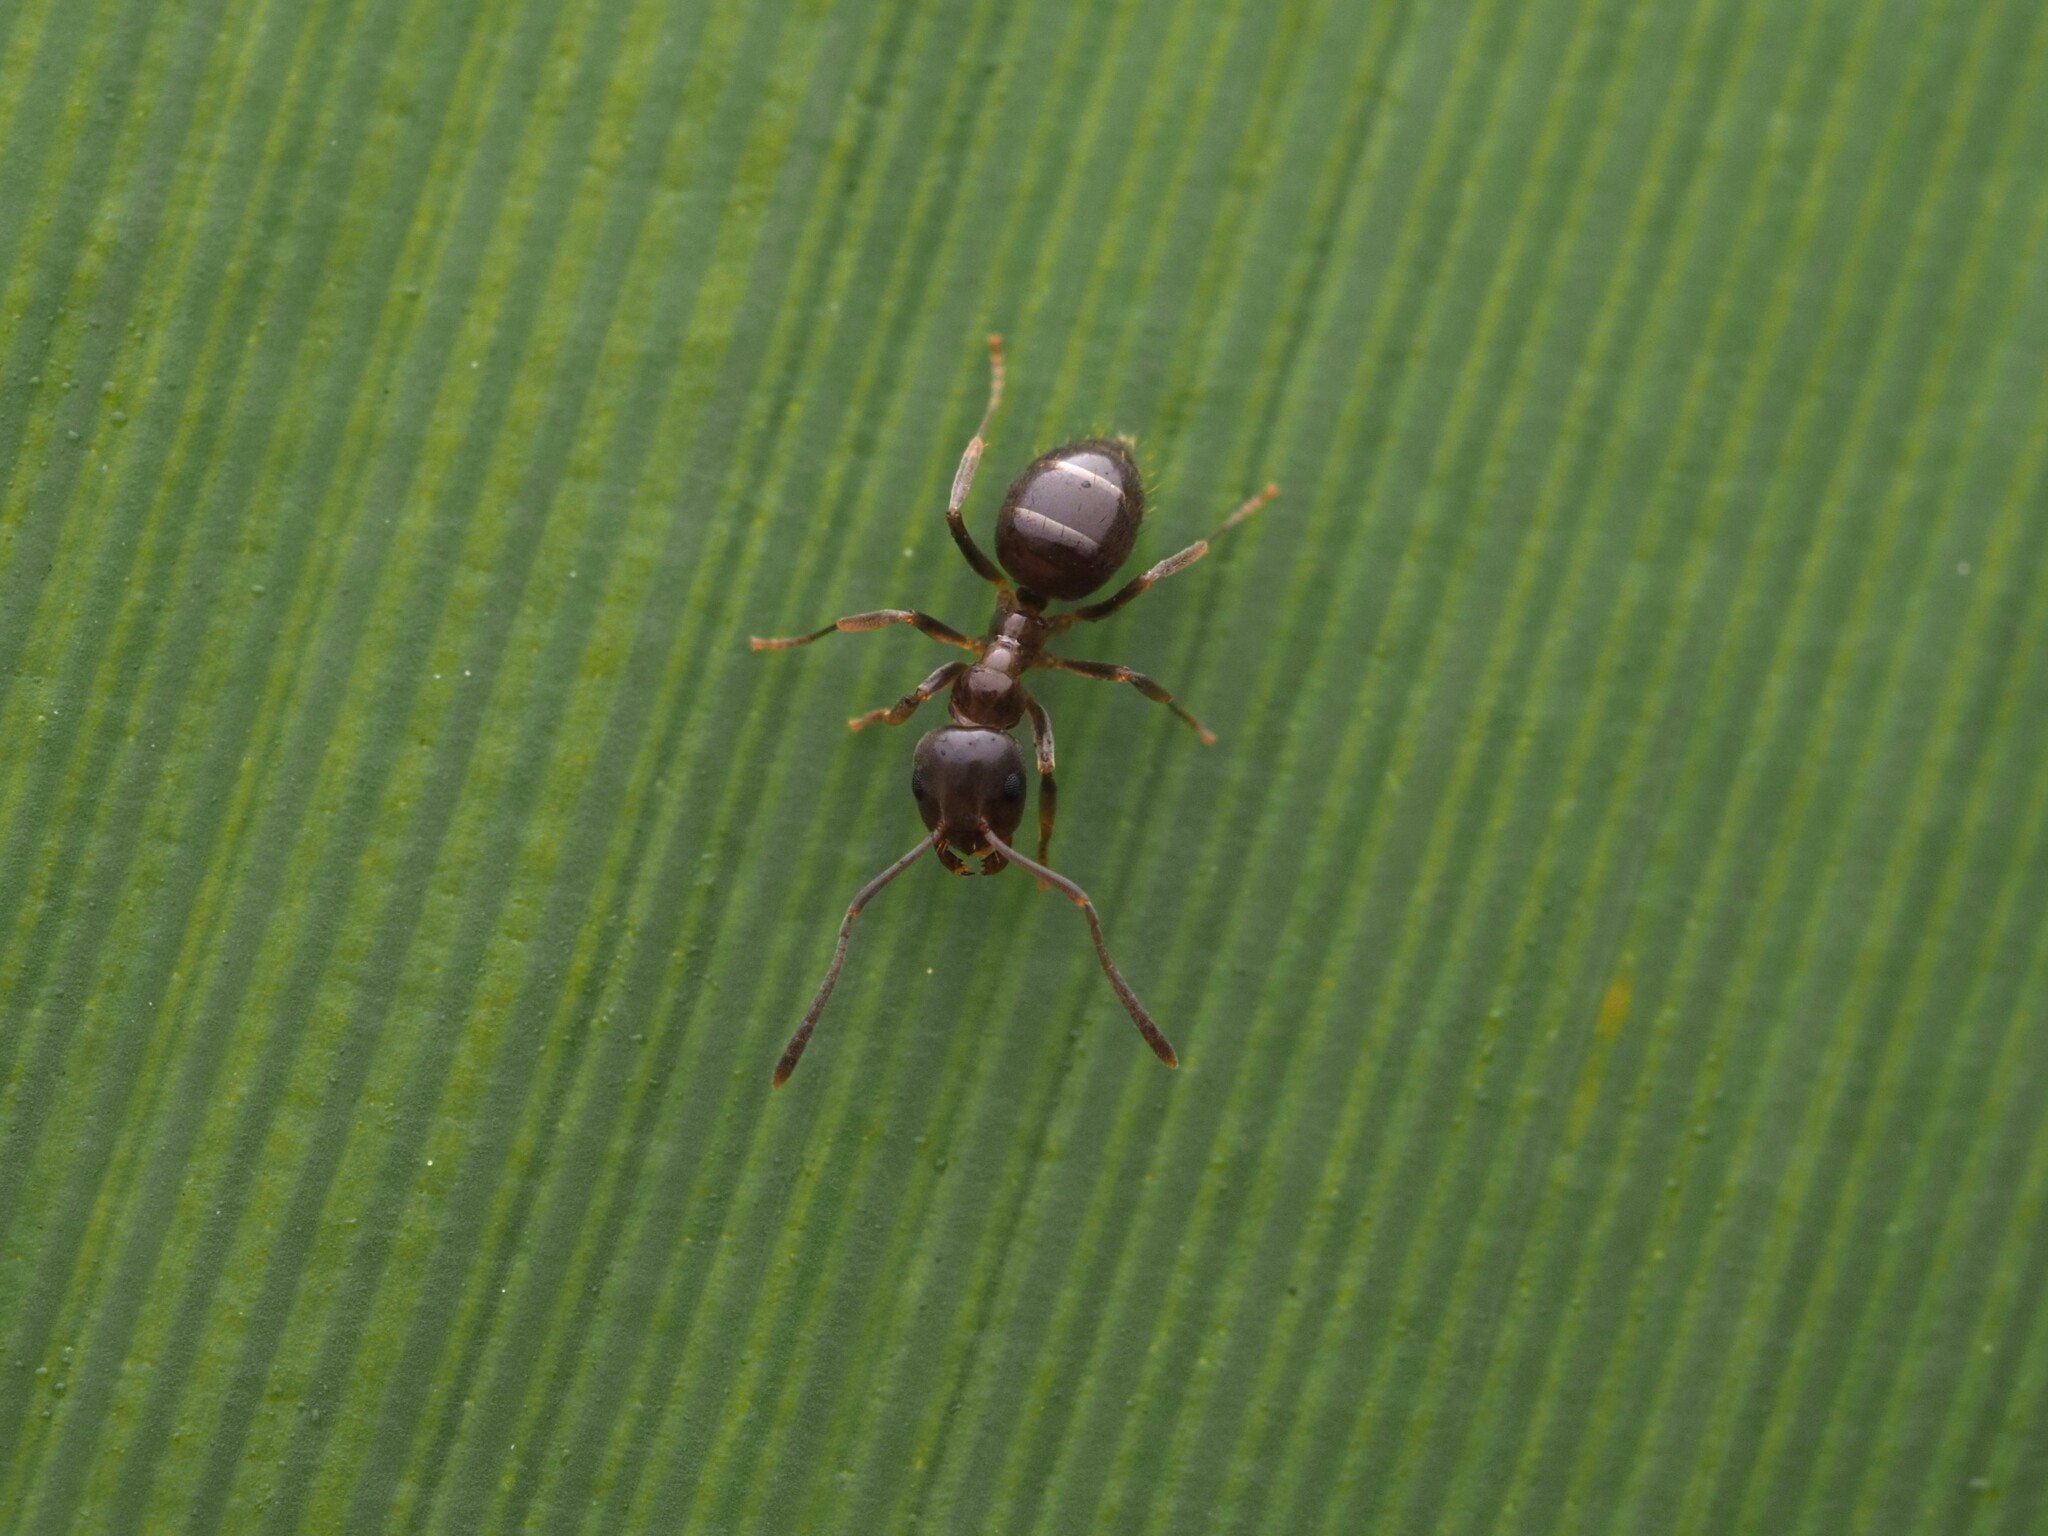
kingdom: Animalia
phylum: Arthropoda
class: Insecta
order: Hymenoptera
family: Formicidae
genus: Prolasius
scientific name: Prolasius advenus
